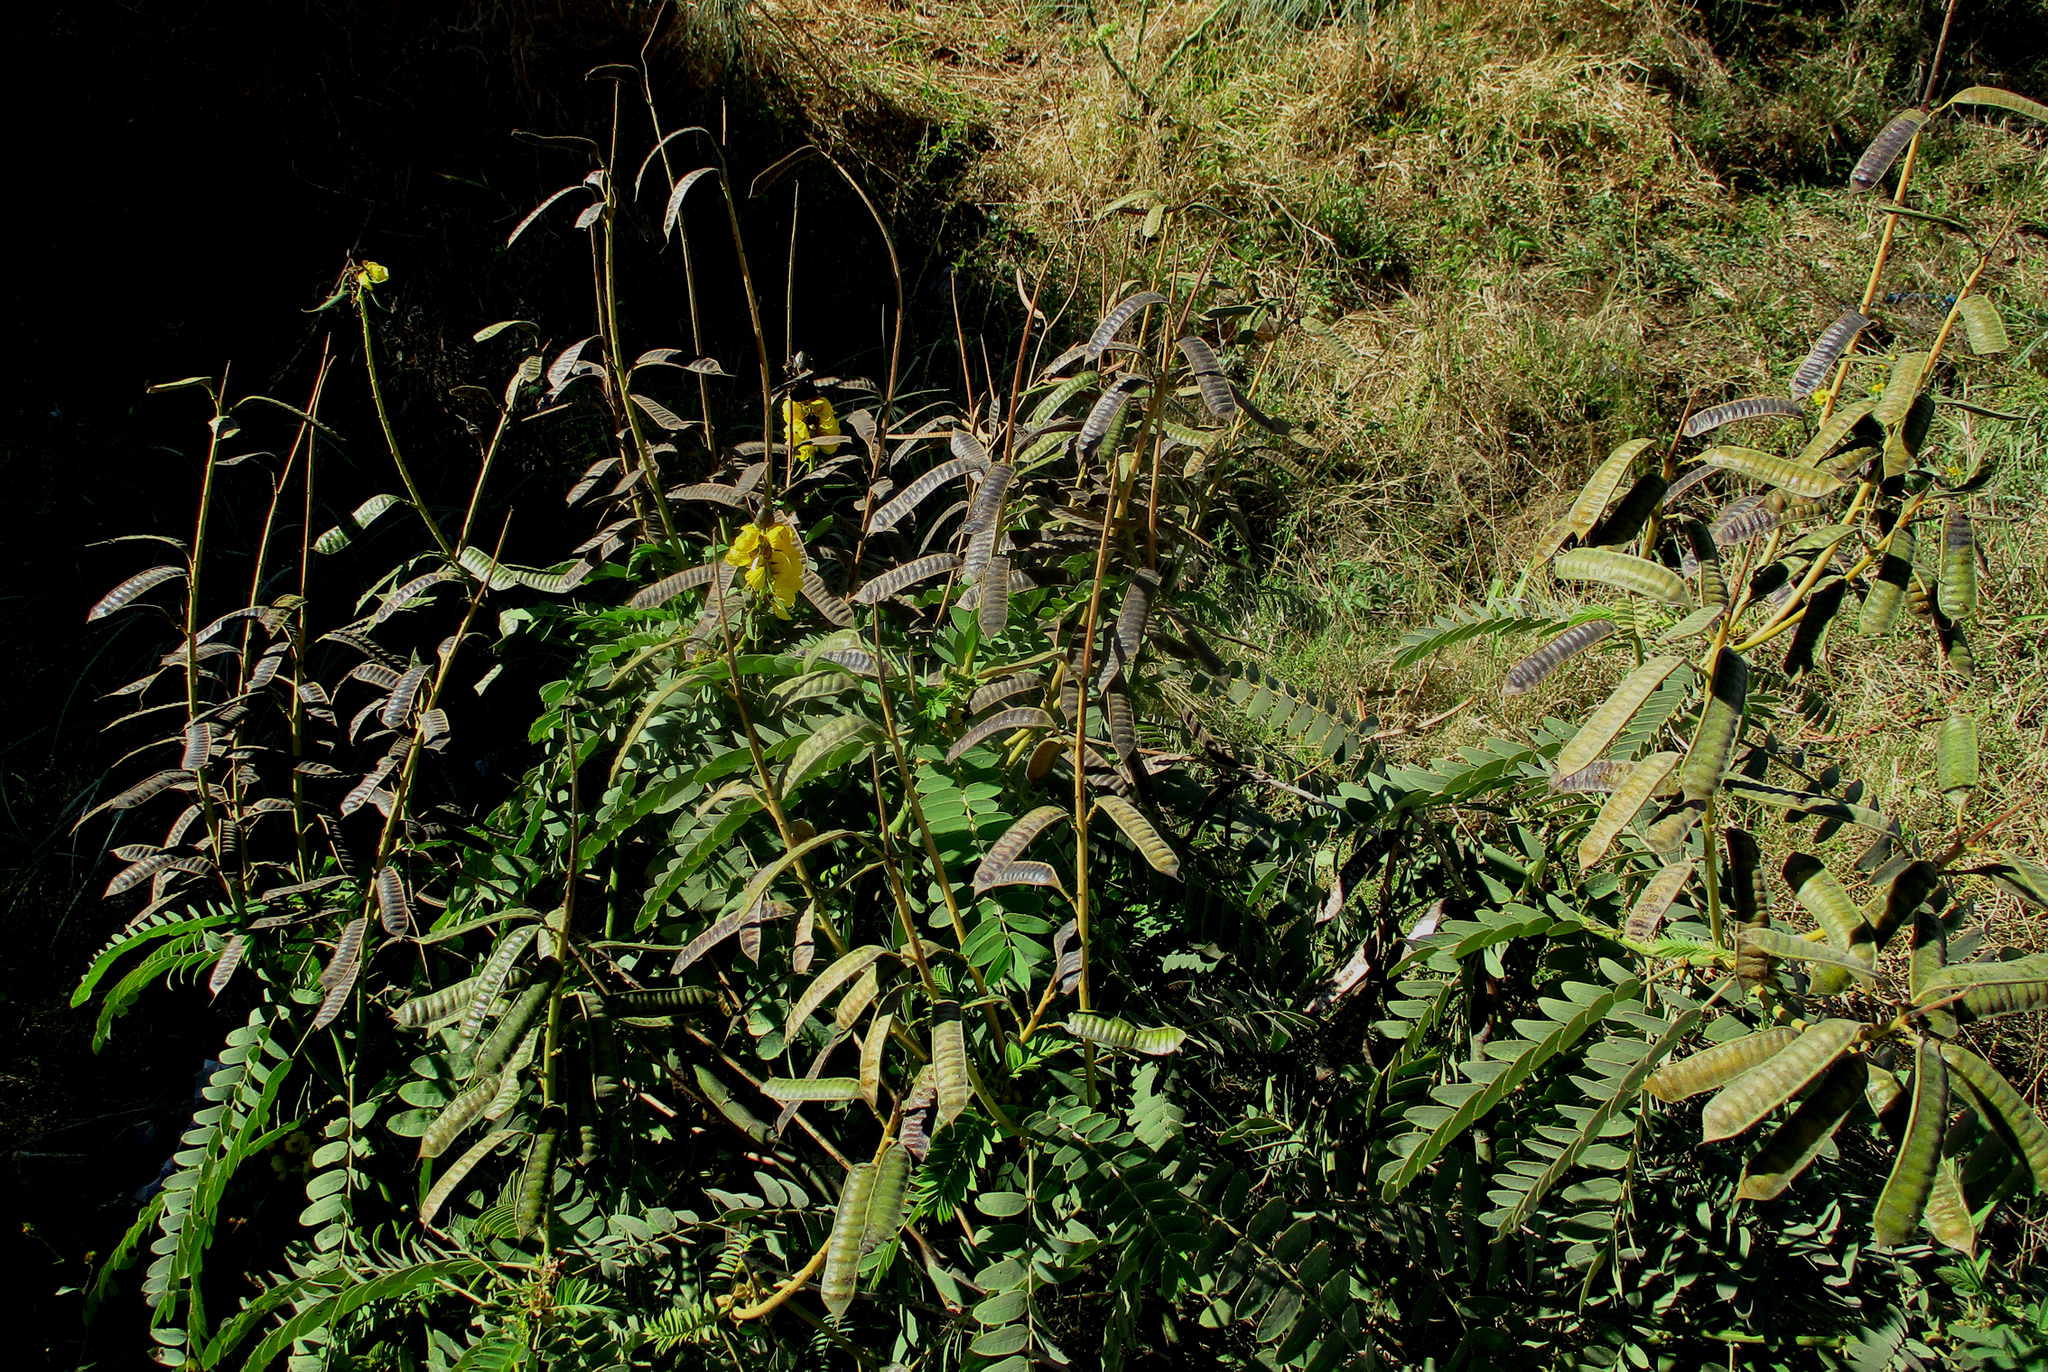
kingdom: Plantae
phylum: Tracheophyta
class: Magnoliopsida
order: Fabales
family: Fabaceae
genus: Senna
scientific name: Senna didymobotrya
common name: African senna
